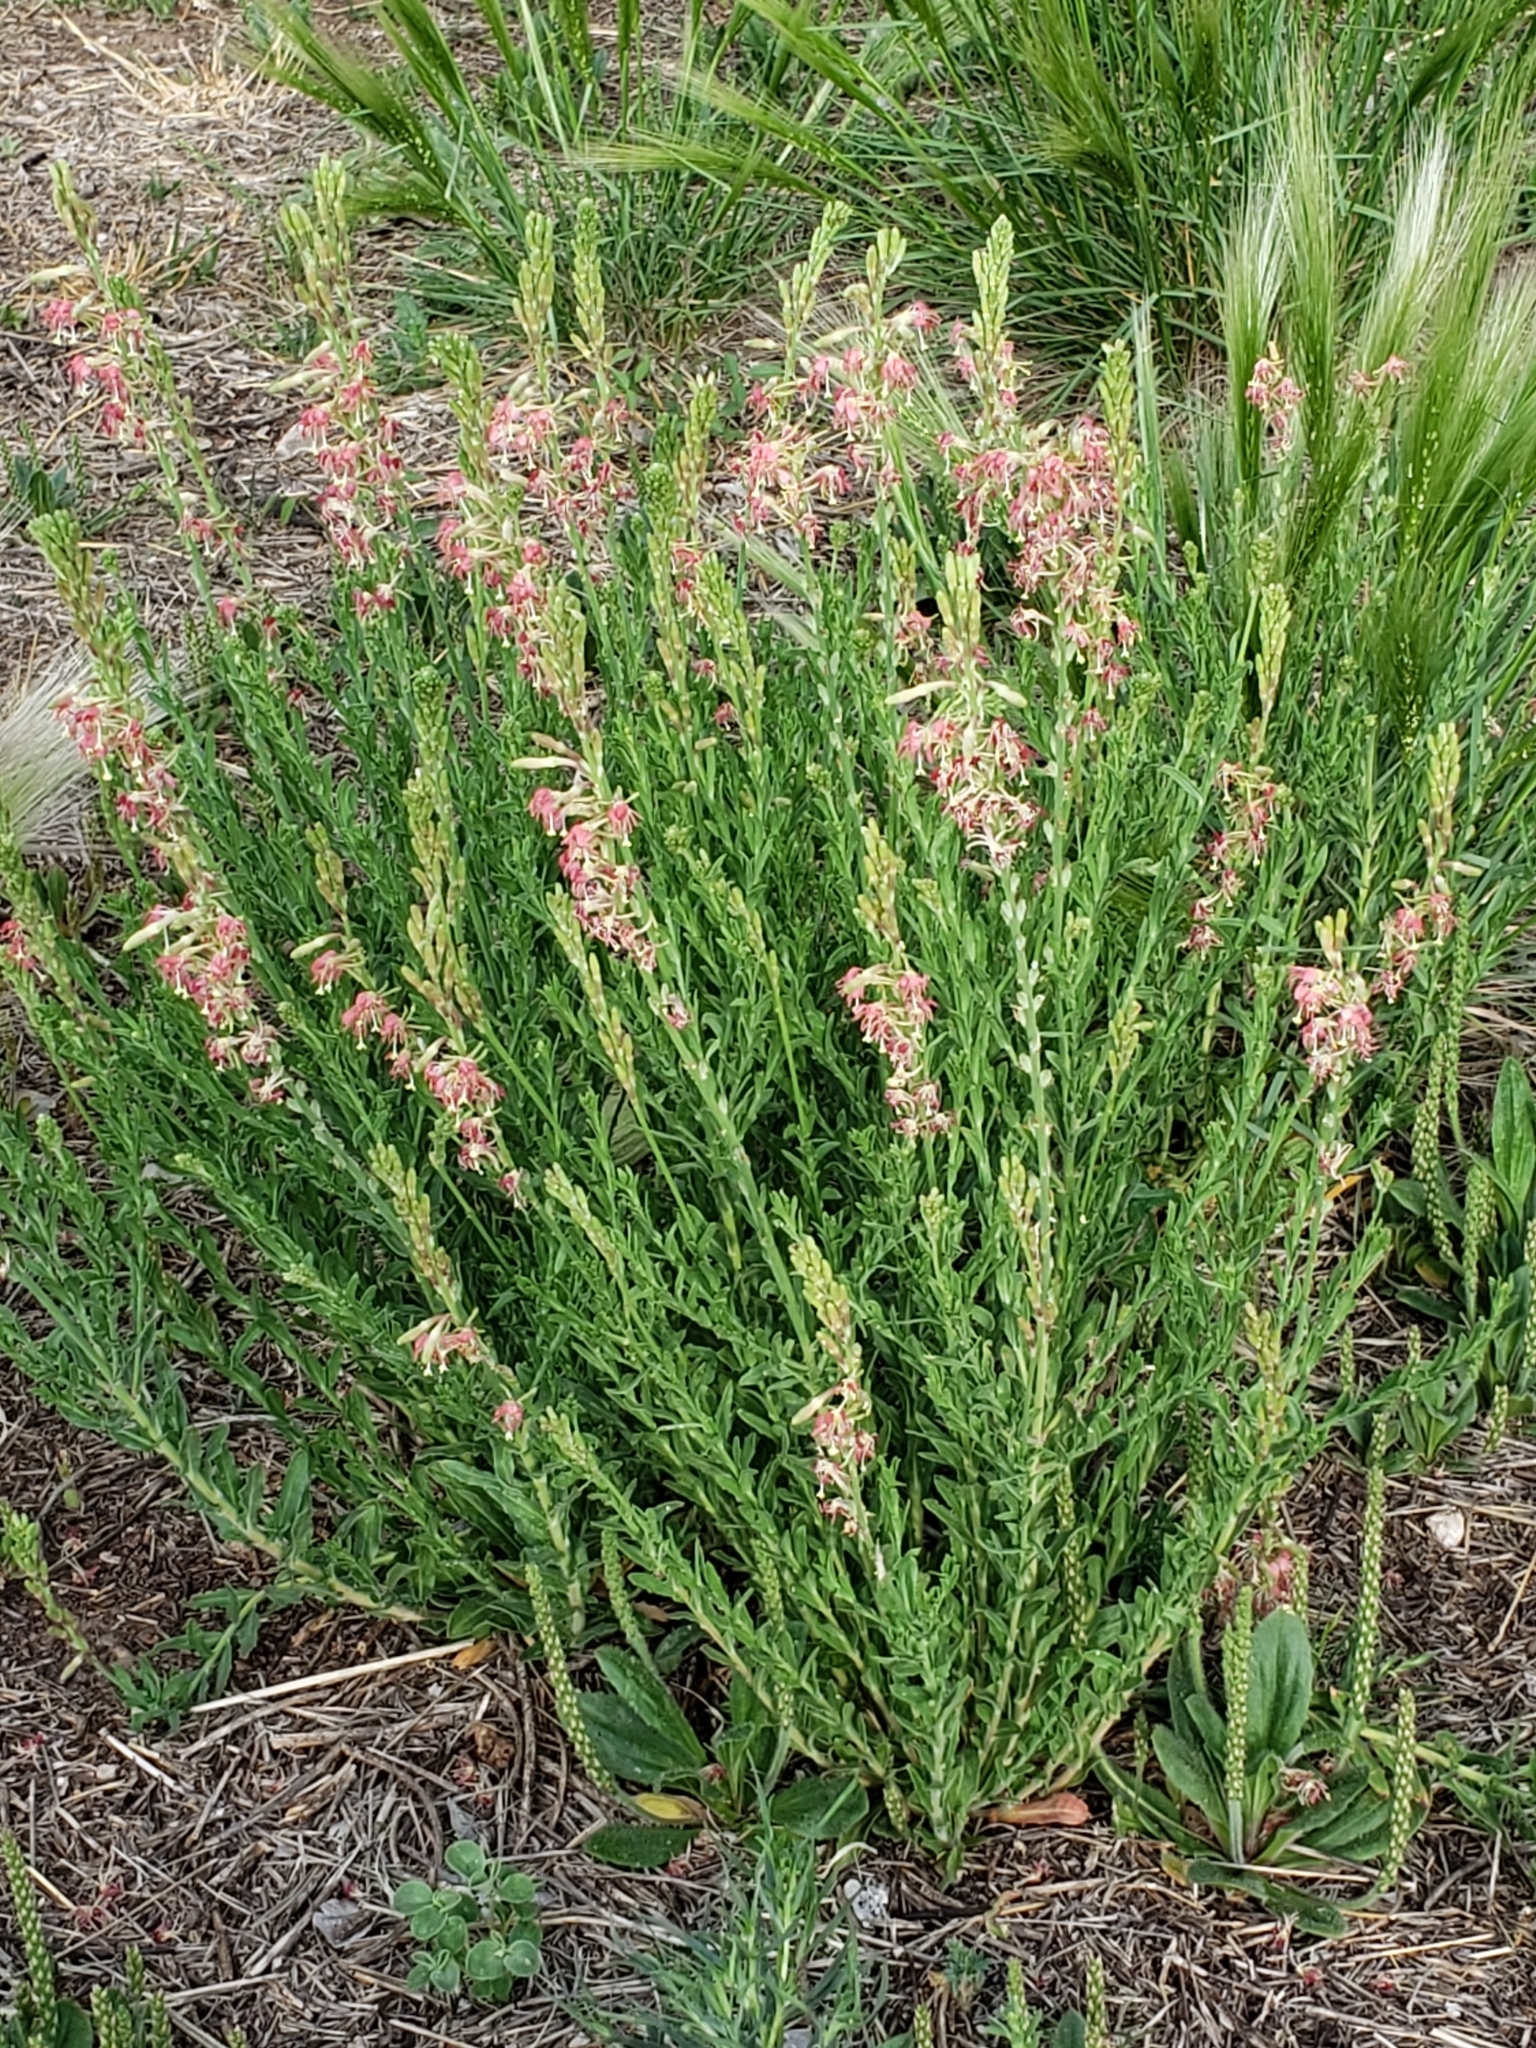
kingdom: Plantae
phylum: Tracheophyta
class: Magnoliopsida
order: Myrtales
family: Onagraceae
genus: Oenothera
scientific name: Oenothera suffrutescens
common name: Scarlet beeblossom
